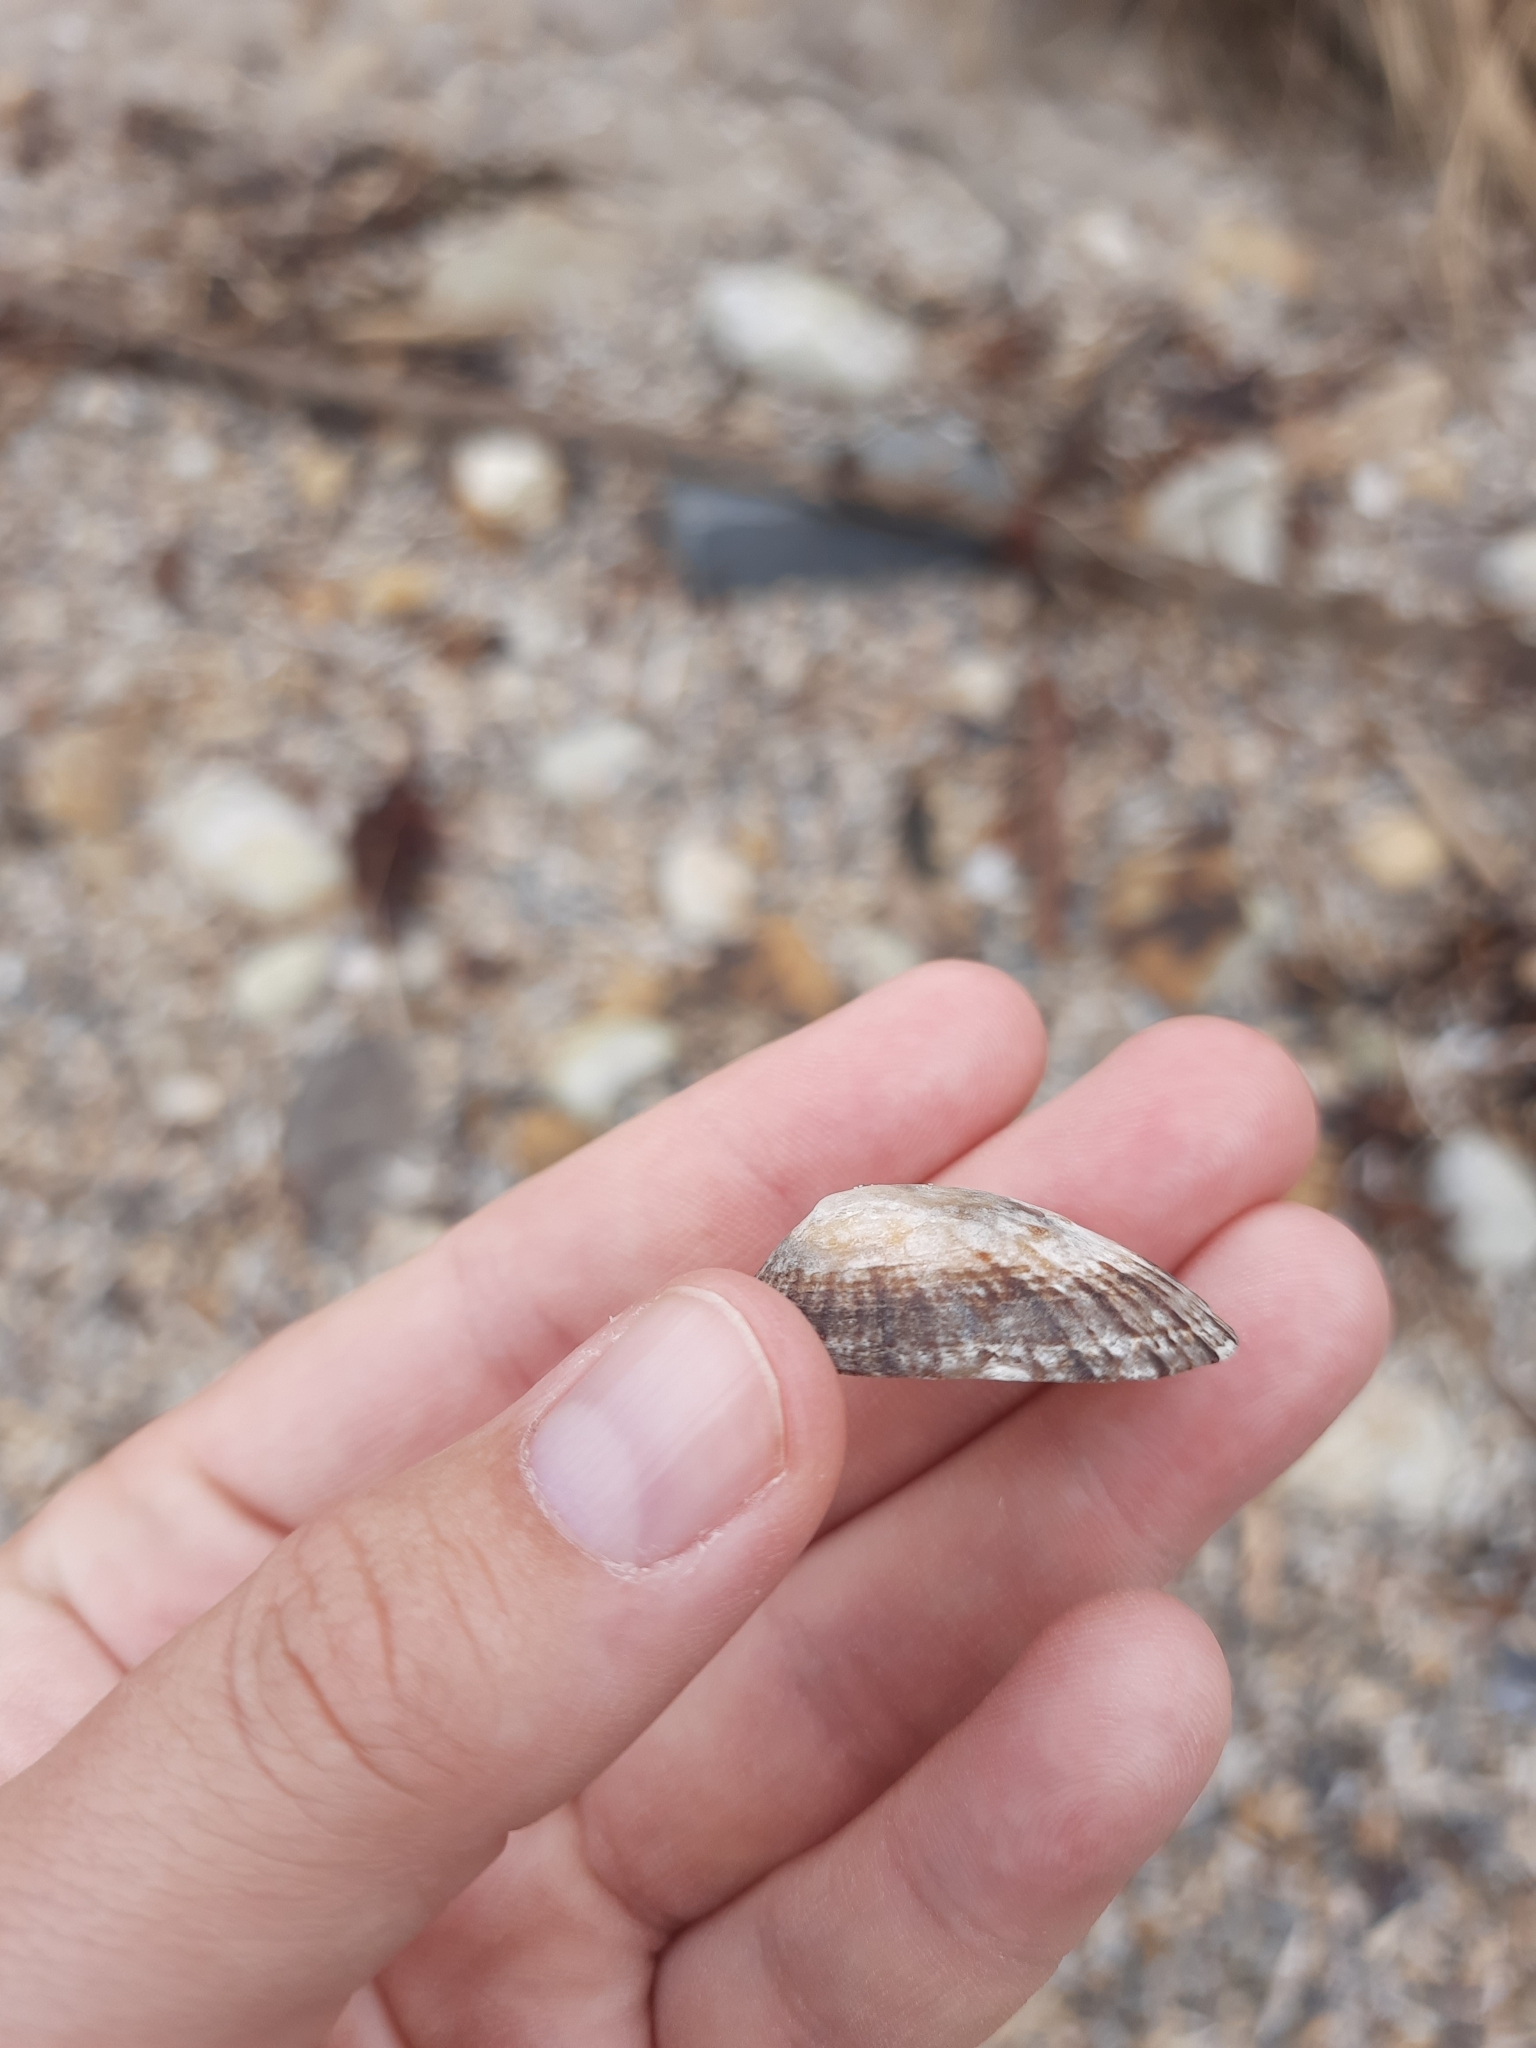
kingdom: Animalia
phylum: Mollusca
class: Gastropoda
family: Nacellidae
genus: Cellana
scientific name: Cellana radians
